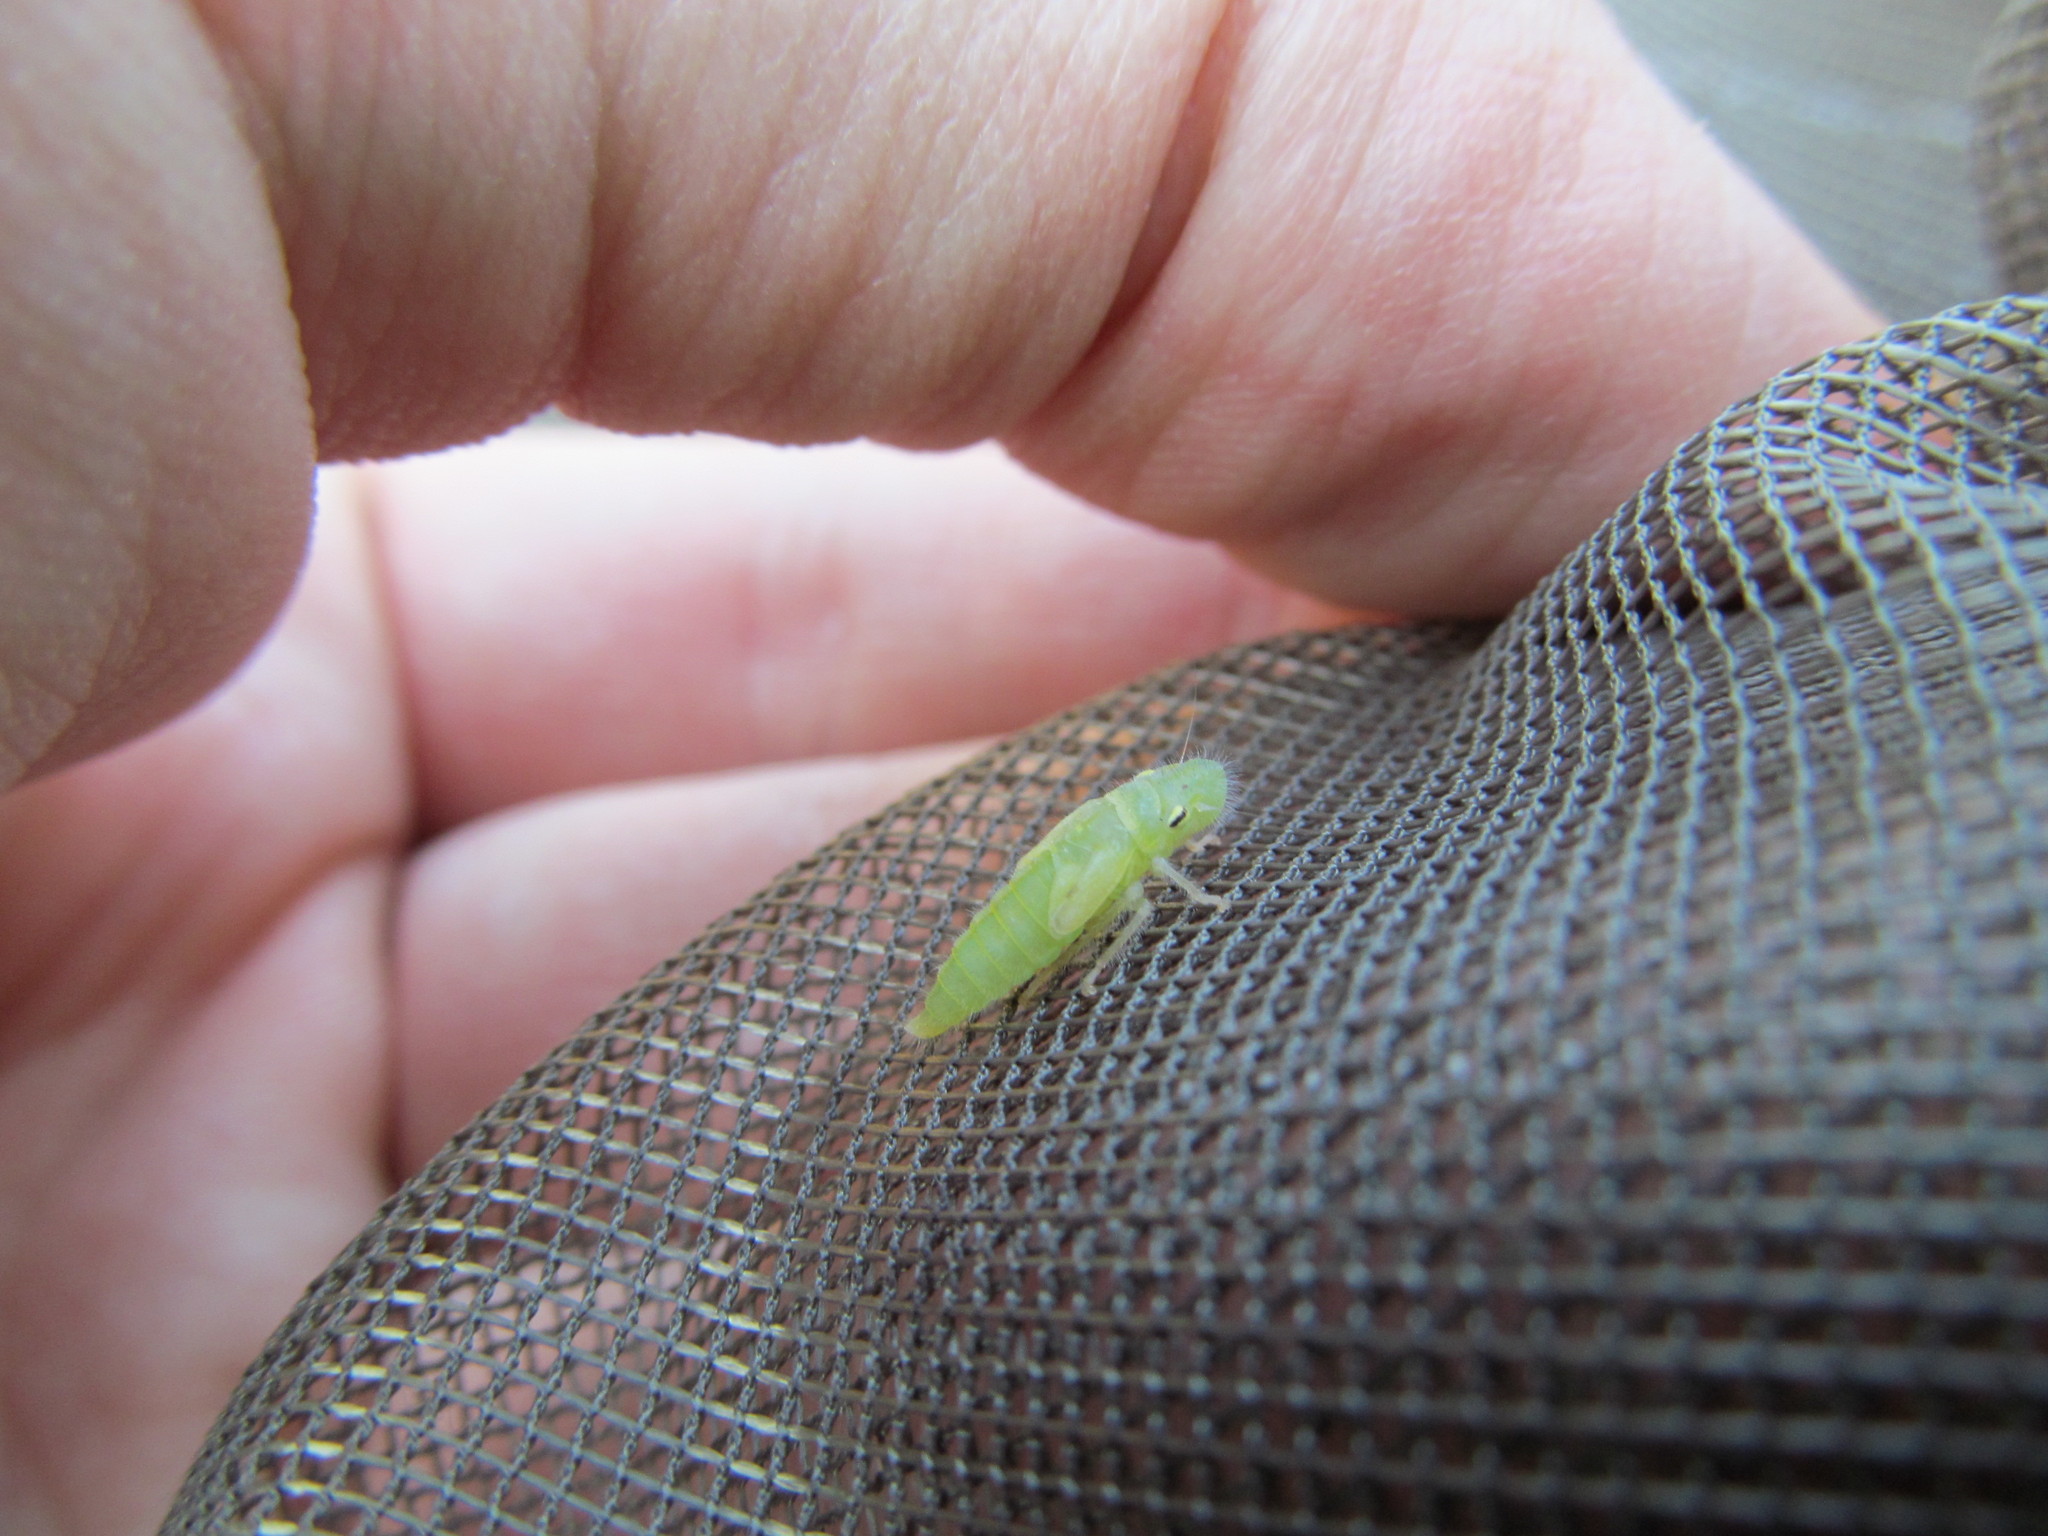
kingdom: Animalia
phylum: Arthropoda
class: Insecta
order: Hemiptera
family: Cicadellidae
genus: Paraulacizes
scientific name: Paraulacizes irrorata
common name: Speckled sharpshooter
